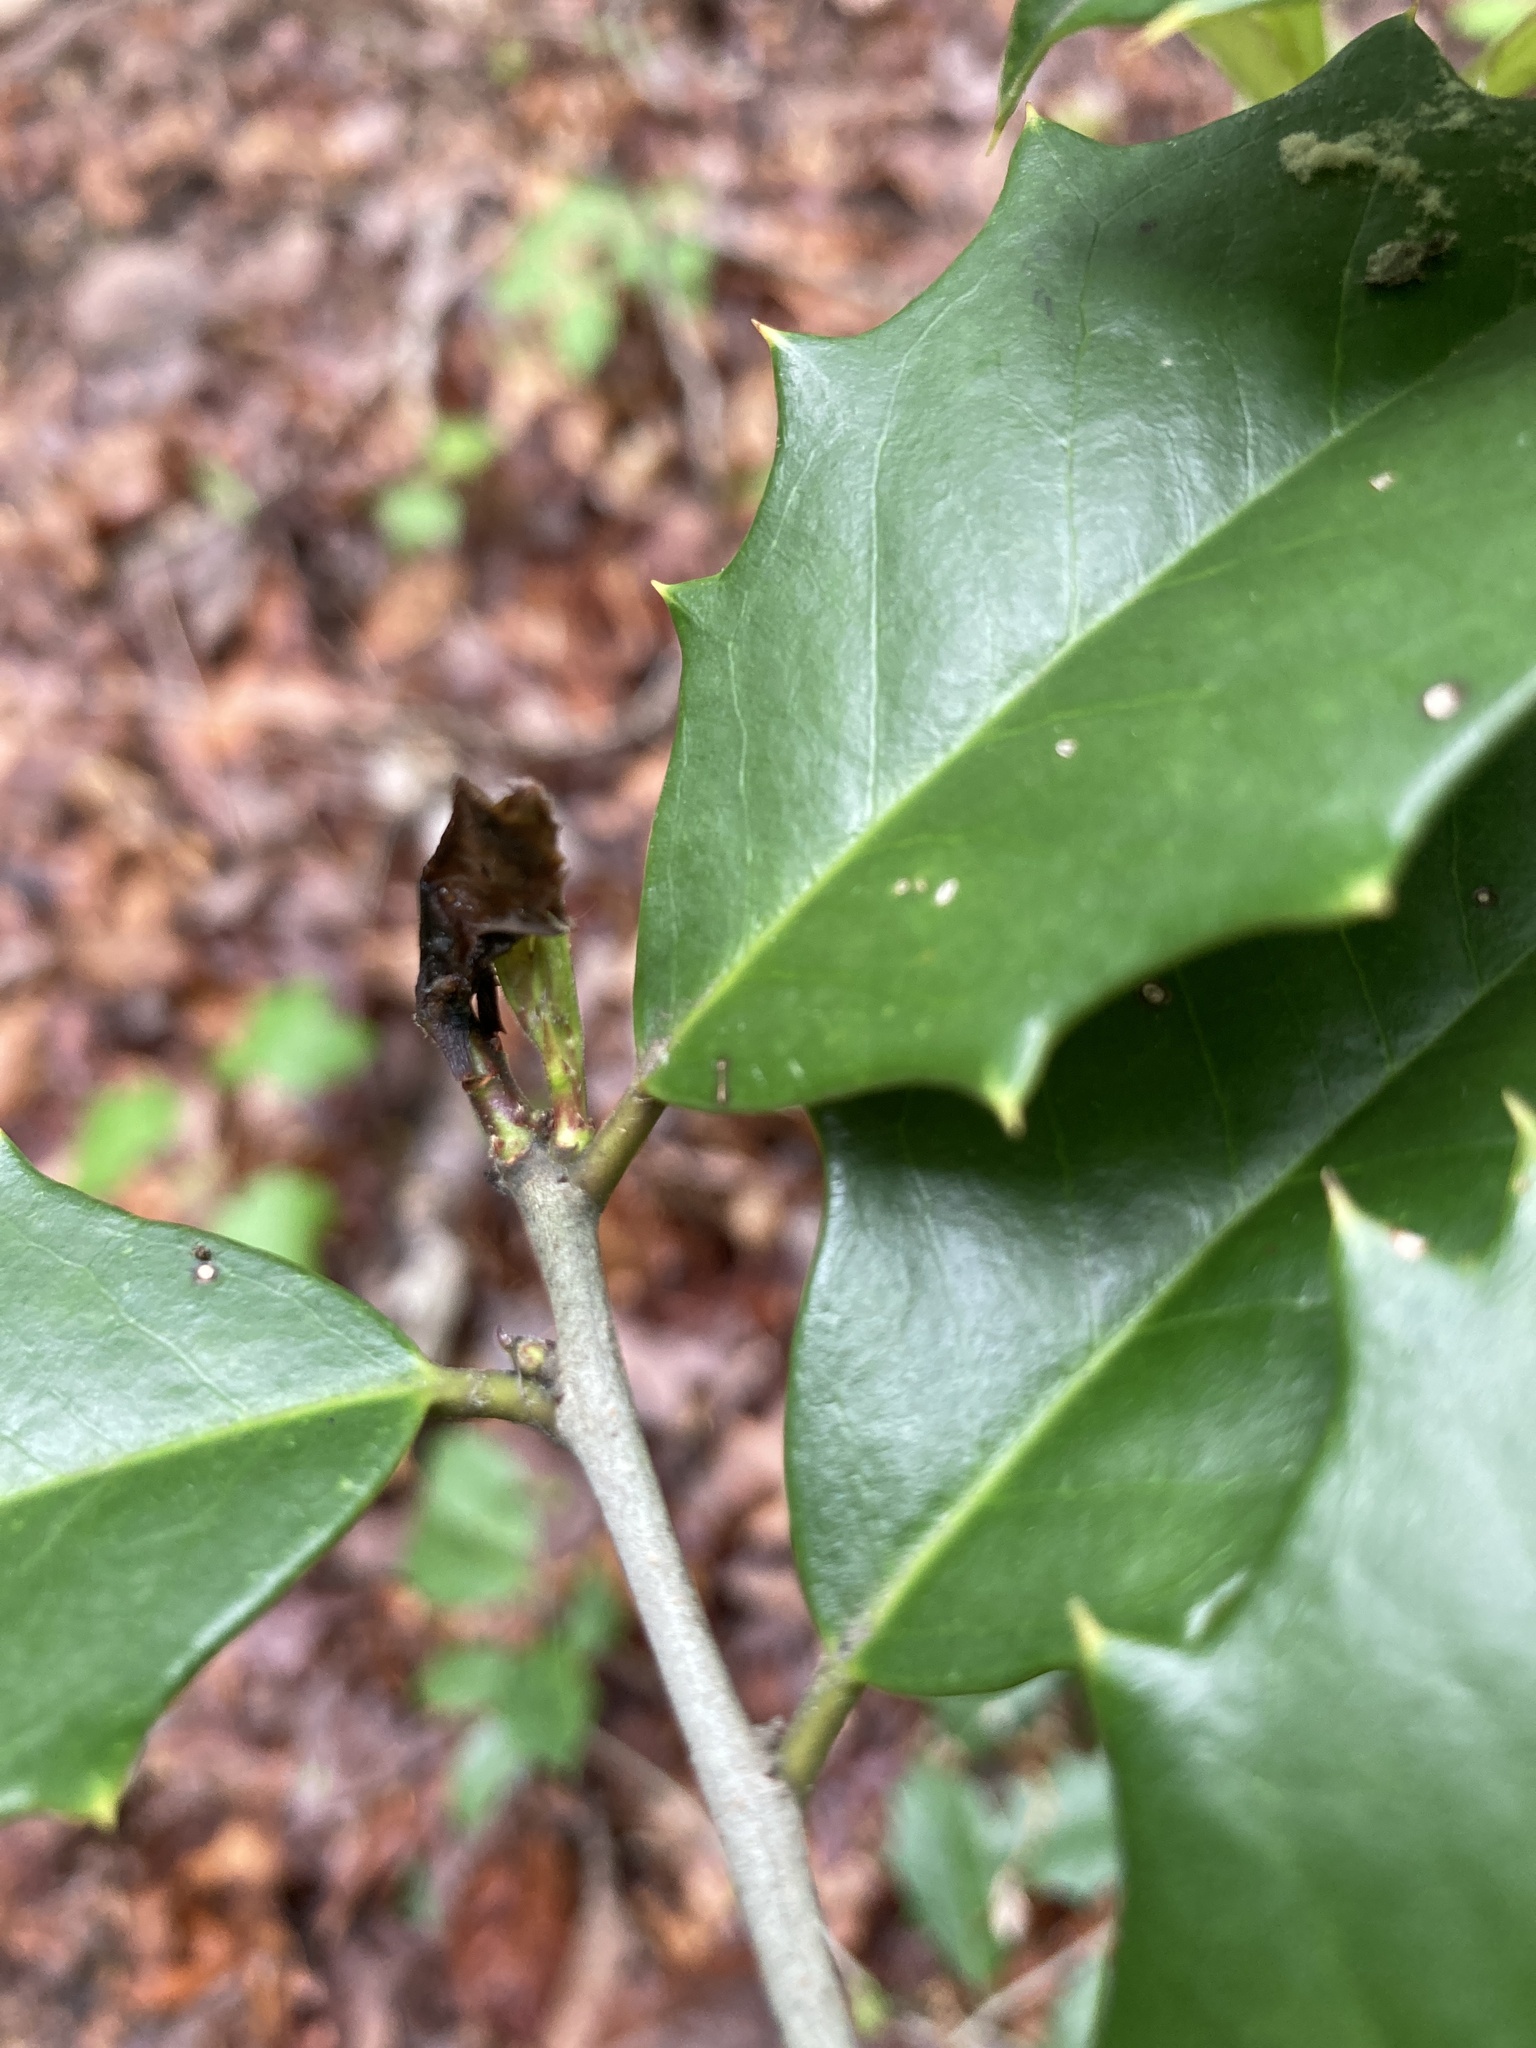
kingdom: Plantae
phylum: Tracheophyta
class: Magnoliopsida
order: Aquifoliales
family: Aquifoliaceae
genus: Ilex
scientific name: Ilex opaca
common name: American holly
